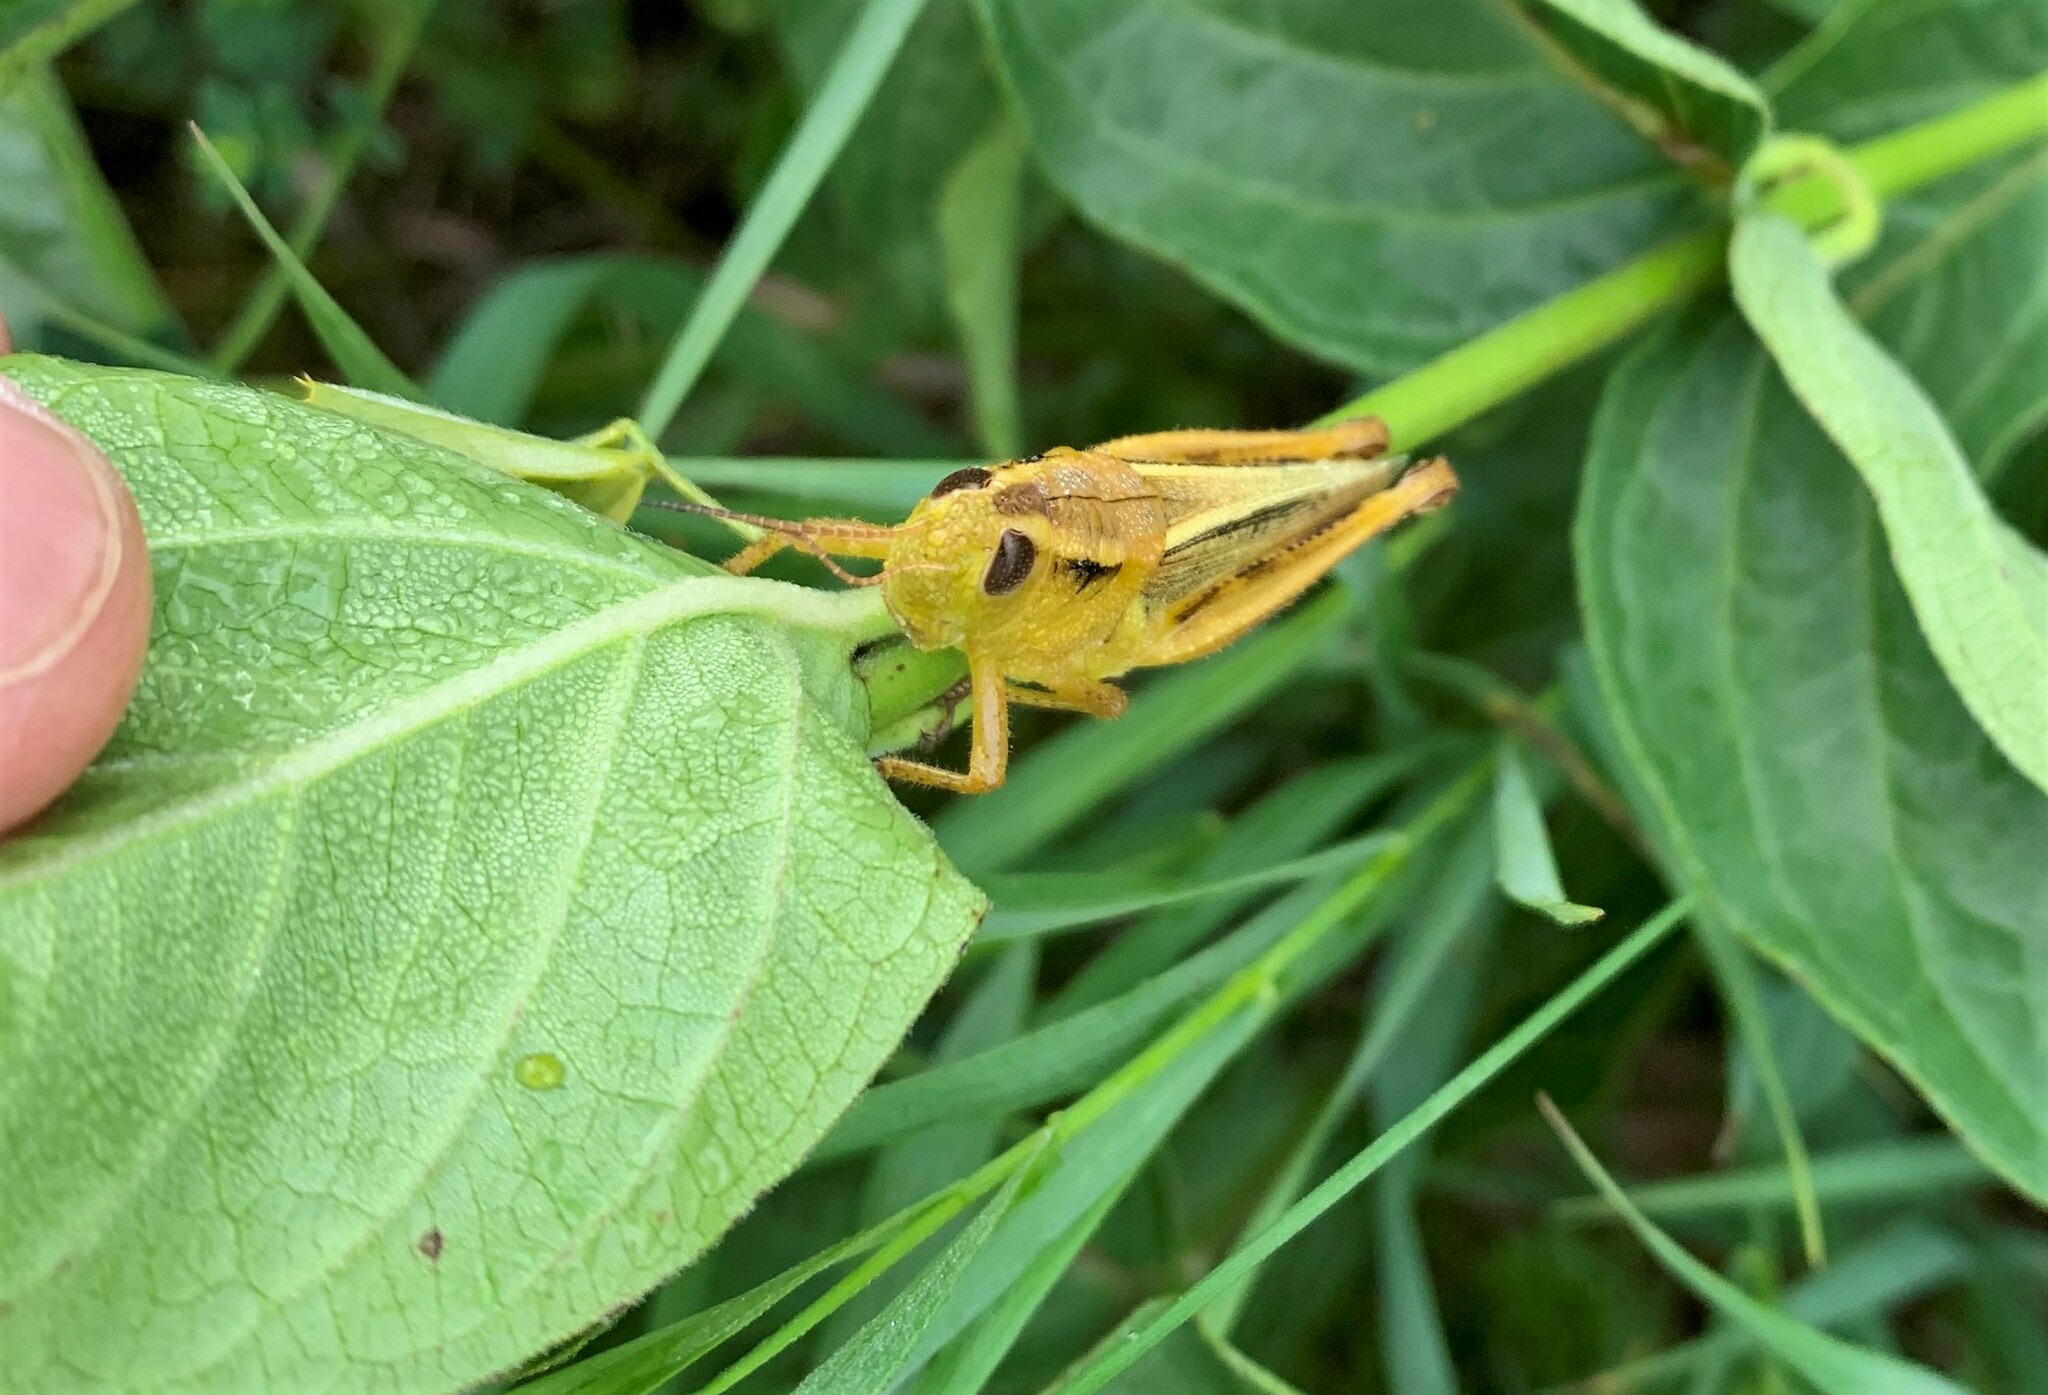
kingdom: Animalia
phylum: Arthropoda
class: Insecta
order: Orthoptera
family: Acrididae
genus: Melanoplus
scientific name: Melanoplus bivittatus
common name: Two-striped grasshopper
